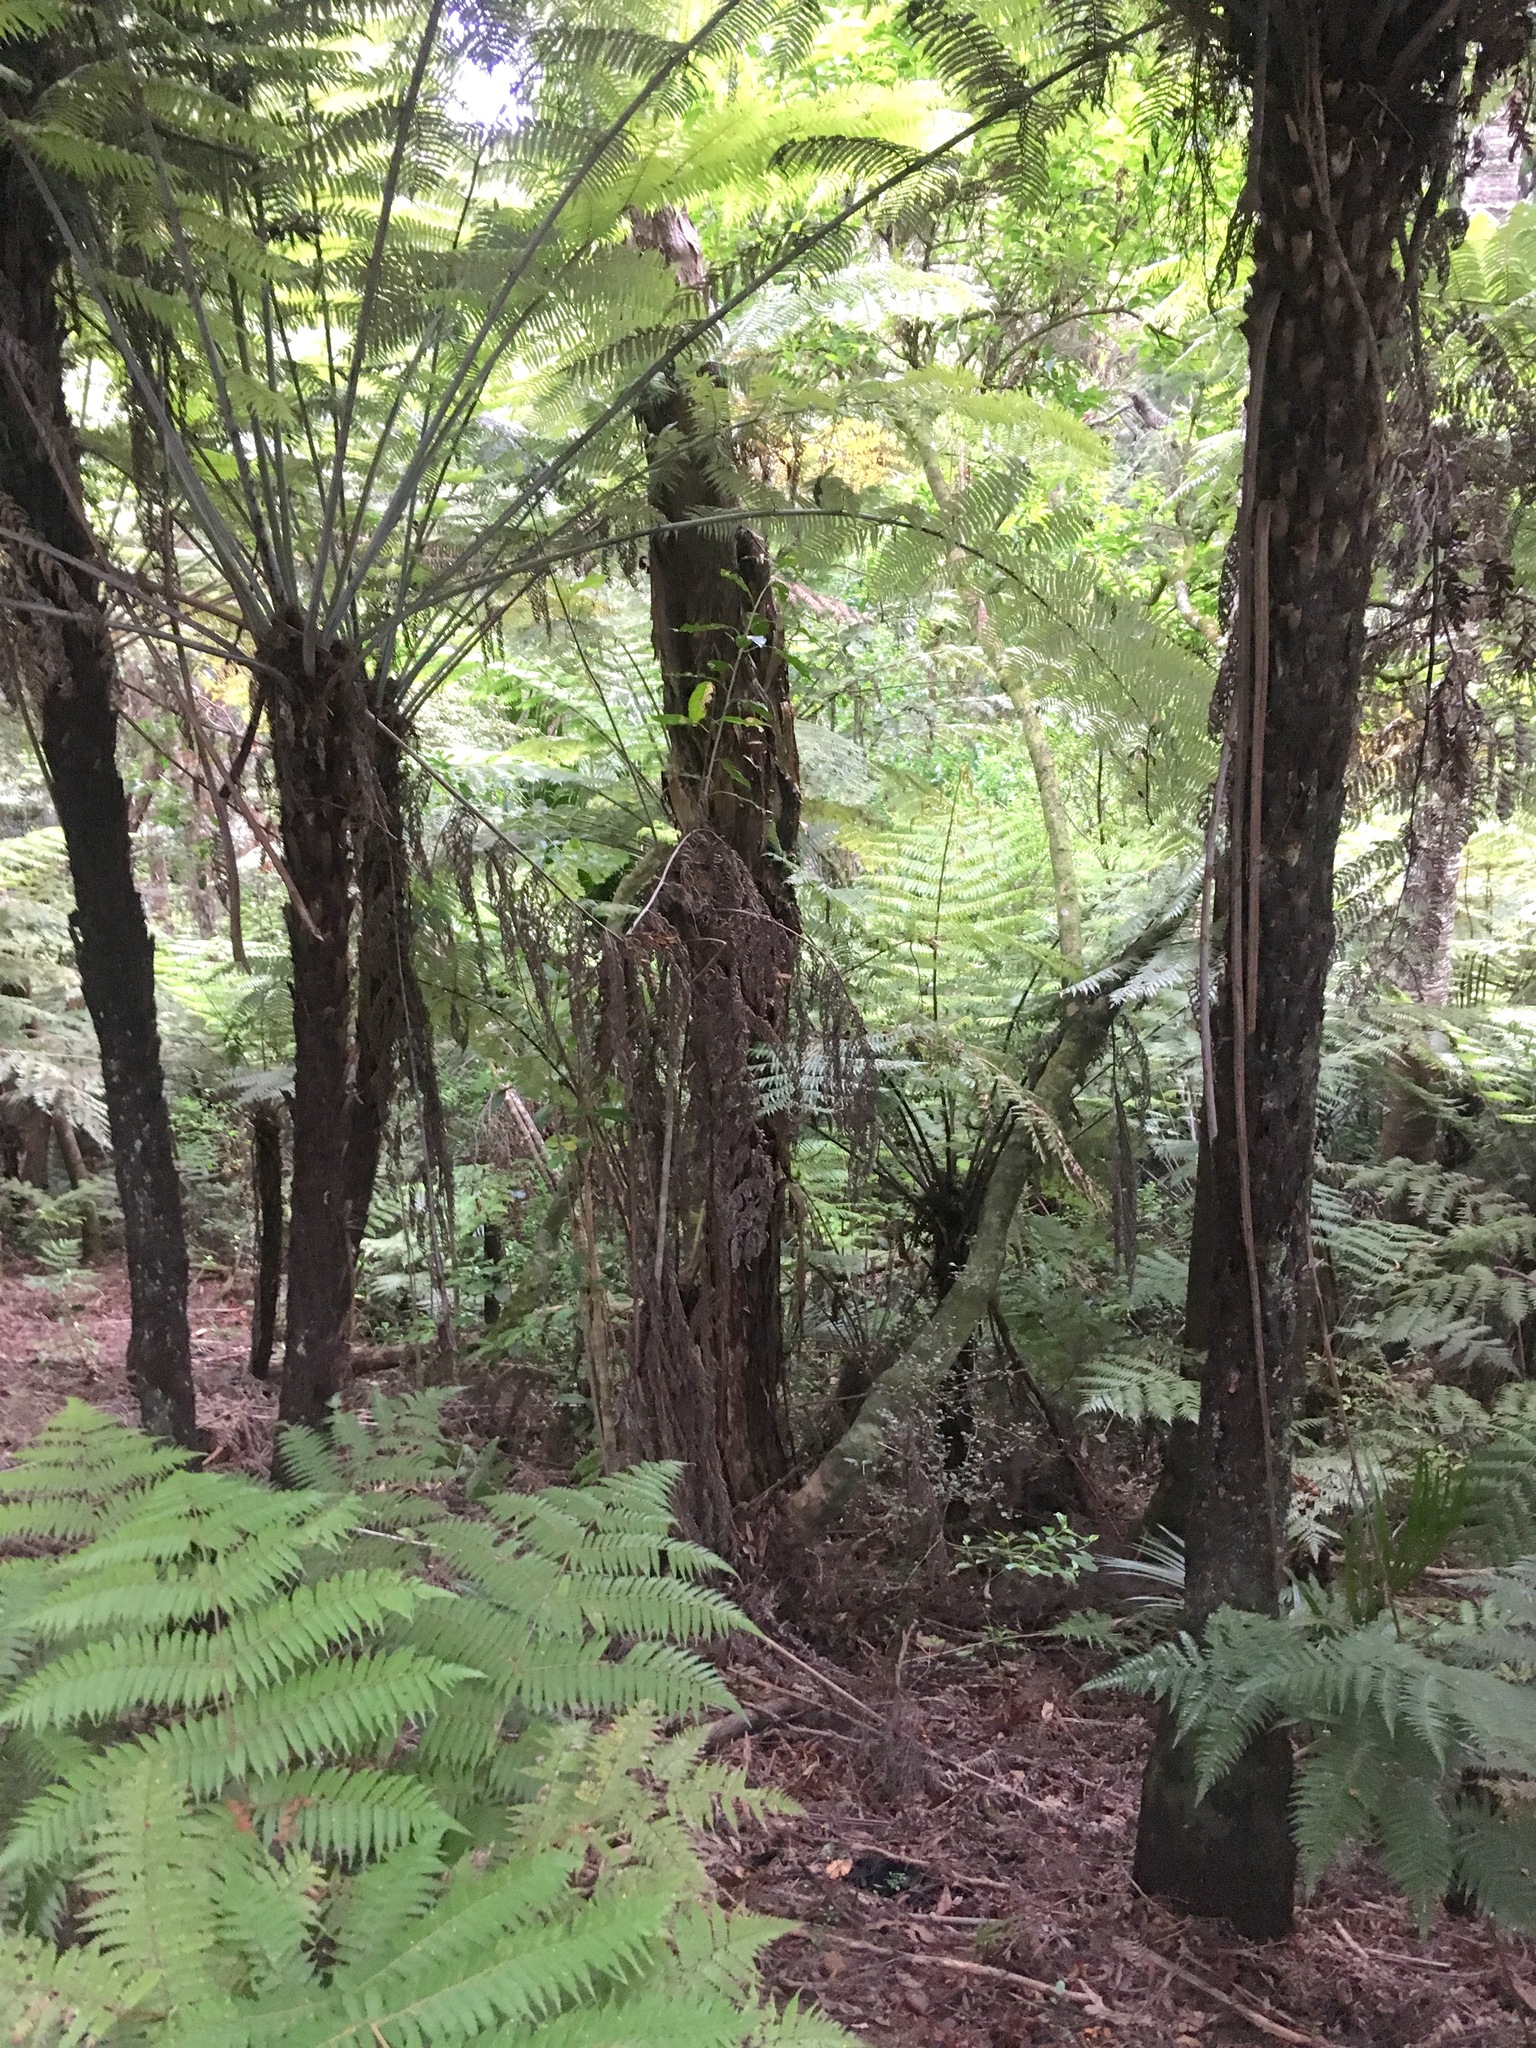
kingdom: Plantae
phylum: Tracheophyta
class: Polypodiopsida
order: Cyatheales
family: Cyatheaceae
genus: Alsophila
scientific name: Alsophila dealbata
